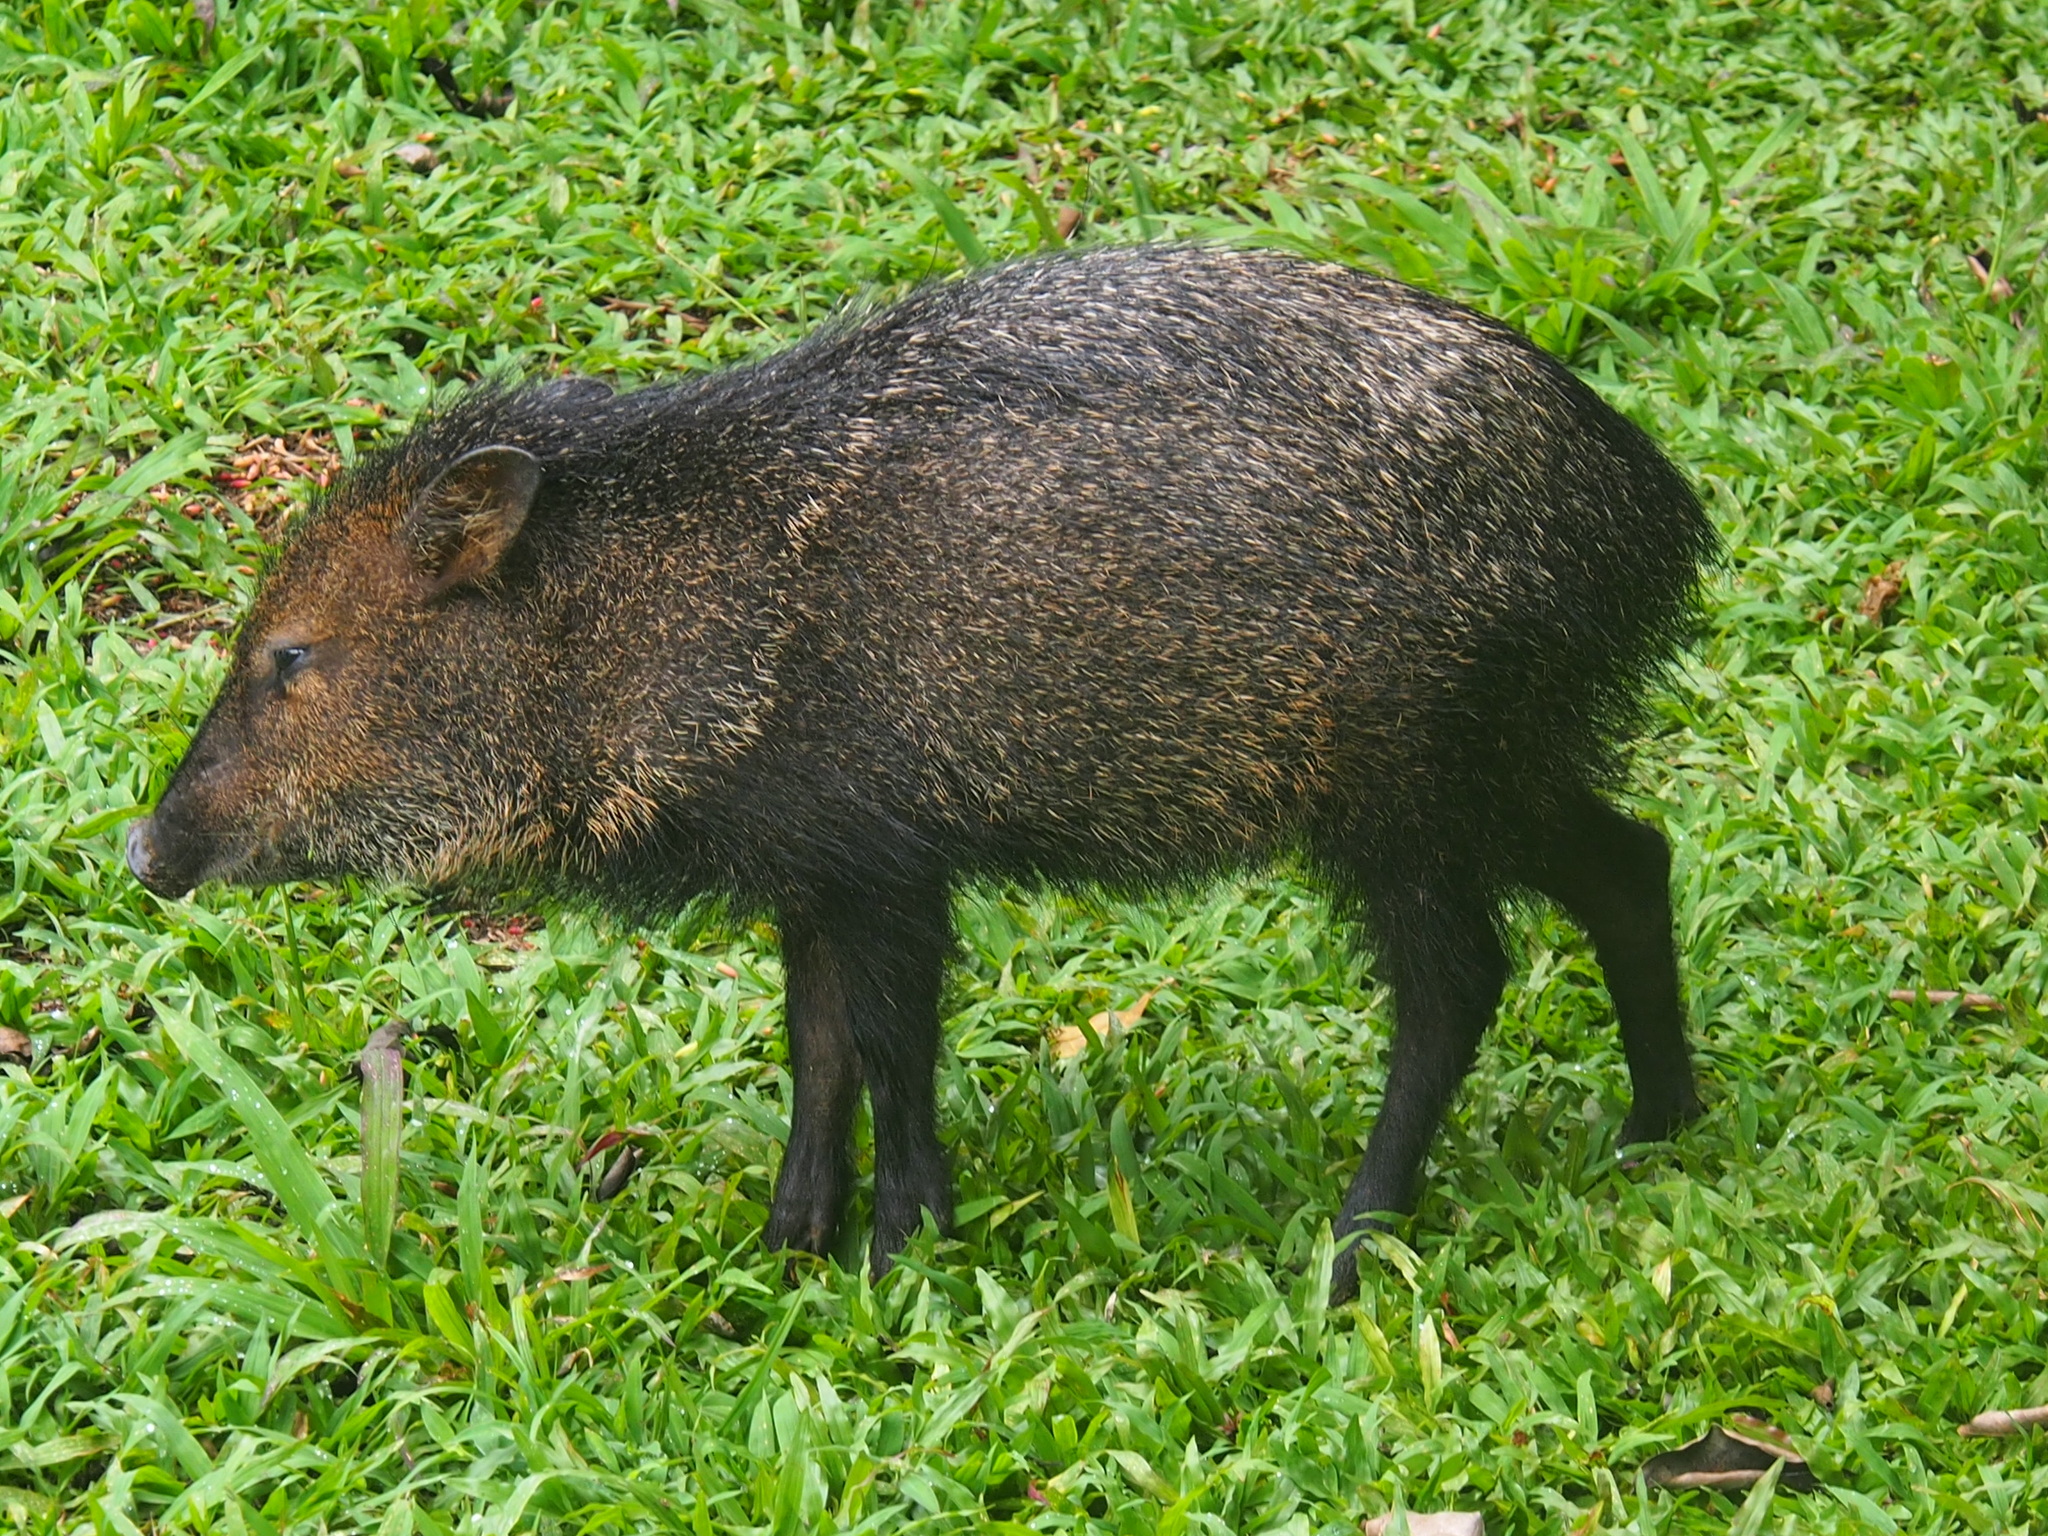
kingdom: Animalia
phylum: Chordata
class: Mammalia
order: Artiodactyla
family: Tayassuidae
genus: Pecari
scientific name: Pecari tajacu
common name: Collared peccary
